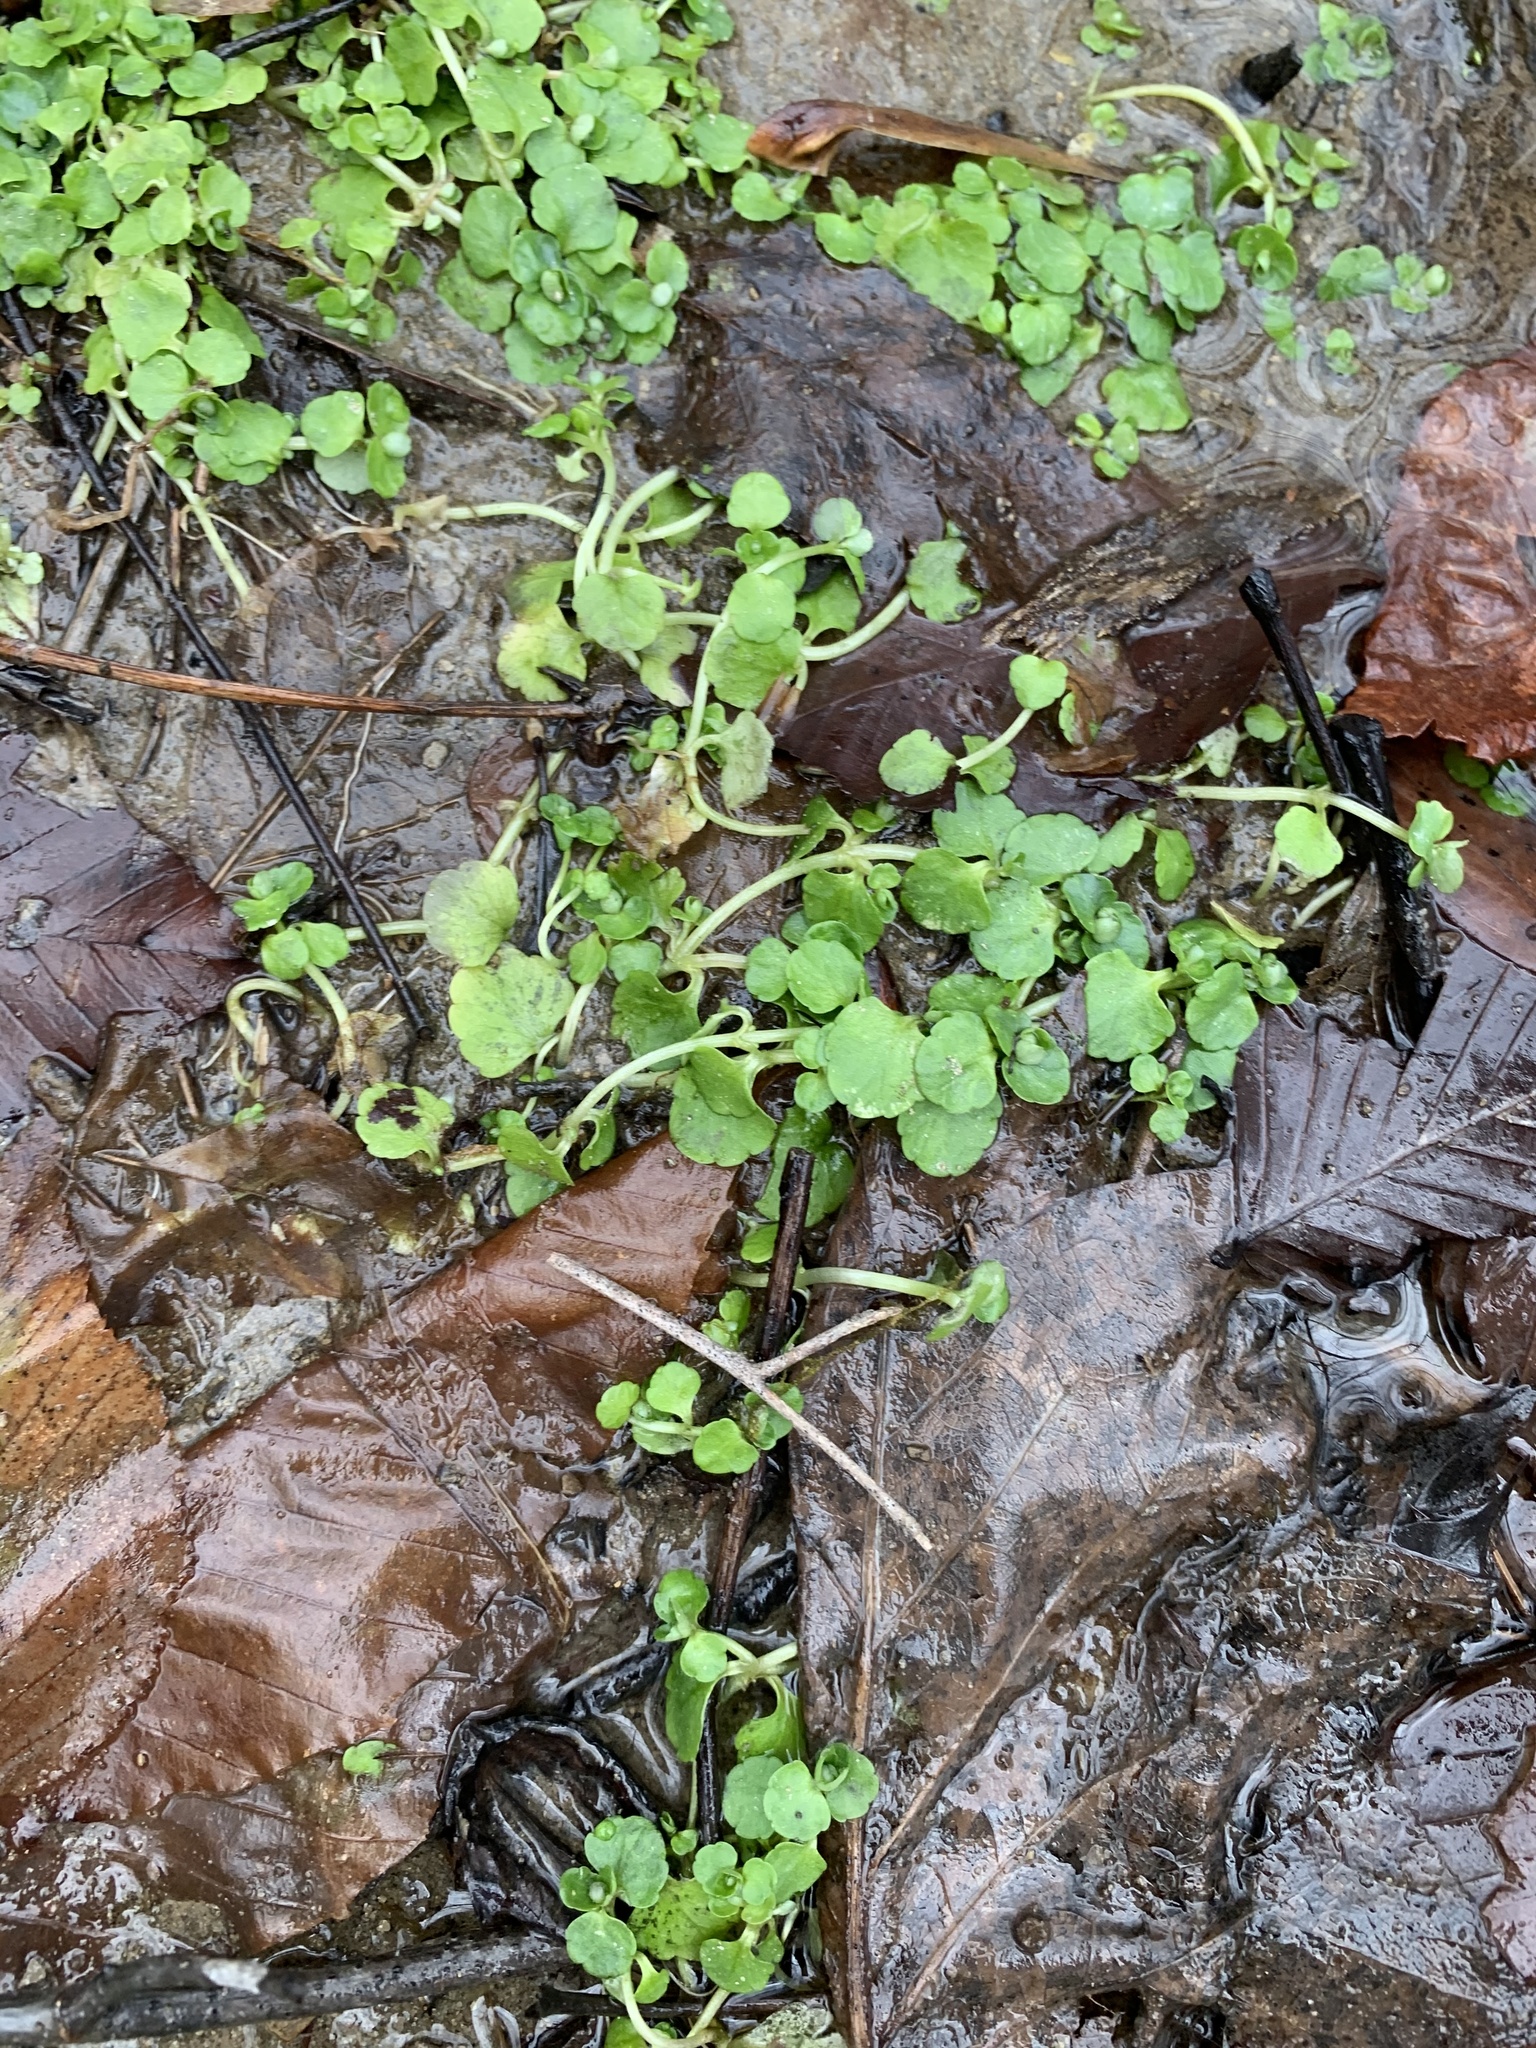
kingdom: Plantae
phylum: Tracheophyta
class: Magnoliopsida
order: Saxifragales
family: Saxifragaceae
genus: Chrysosplenium
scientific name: Chrysosplenium americanum
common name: American golden-saxifrage
